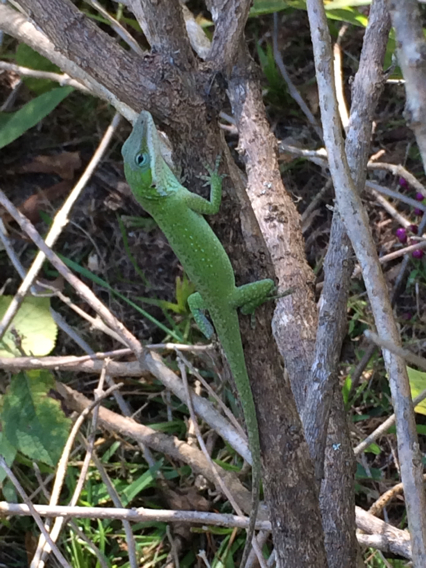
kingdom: Animalia
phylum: Chordata
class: Squamata
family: Dactyloidae
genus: Anolis
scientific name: Anolis carolinensis
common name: Green anole
